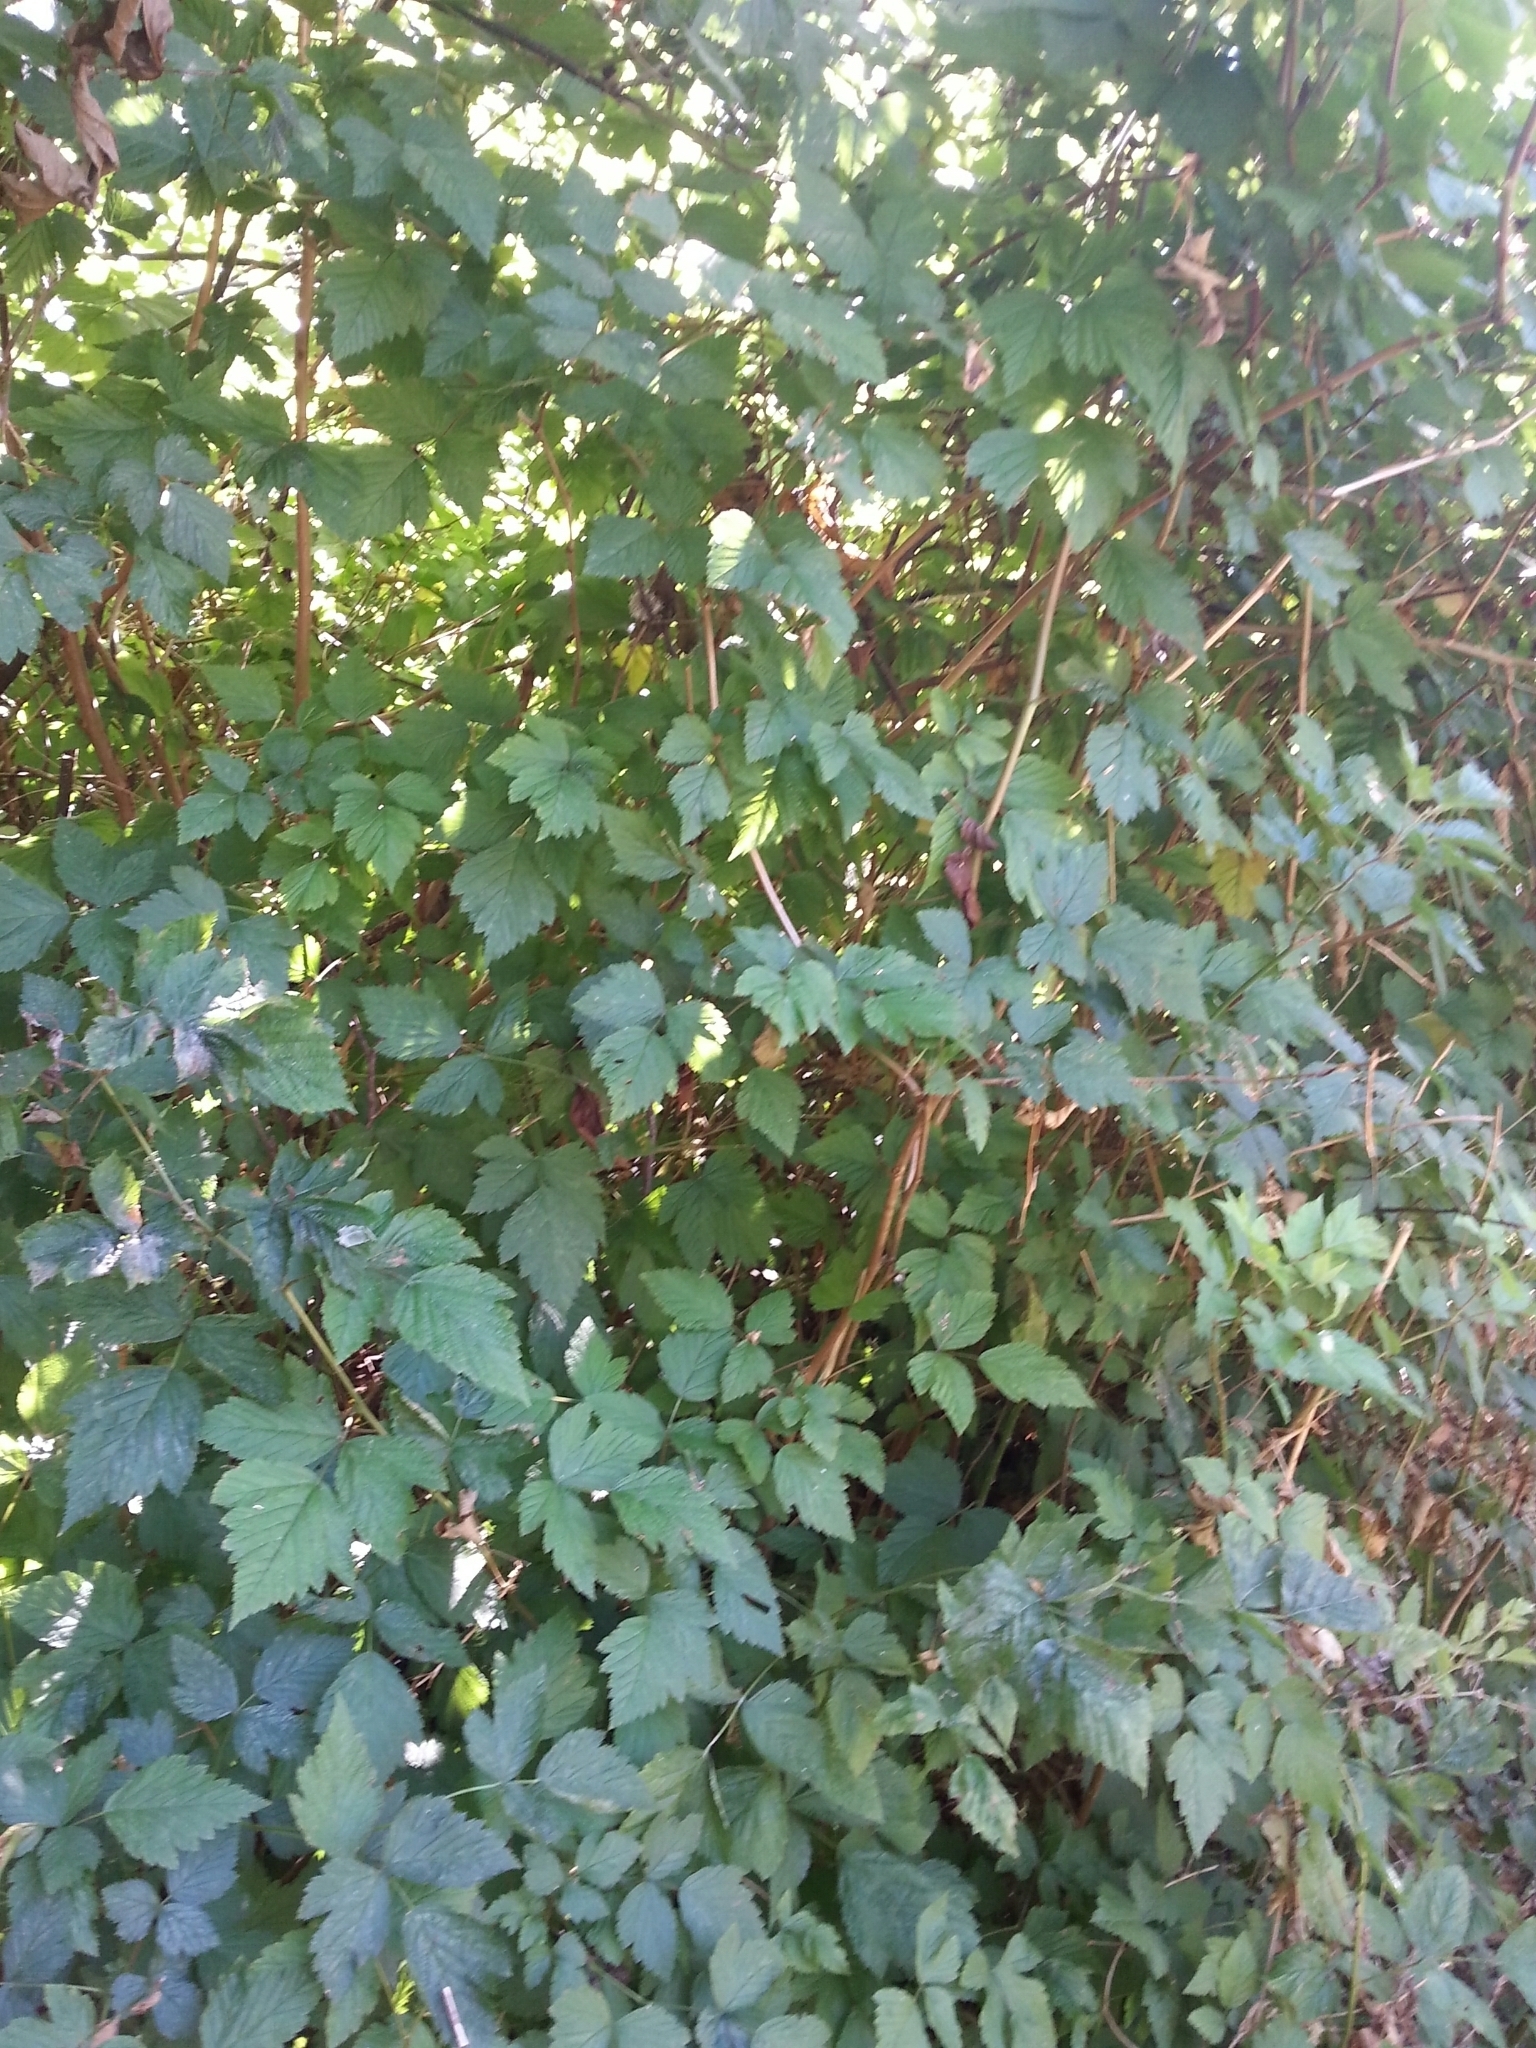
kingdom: Plantae
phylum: Tracheophyta
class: Magnoliopsida
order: Rosales
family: Rosaceae
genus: Rubus
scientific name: Rubus spectabilis
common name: Salmonberry
